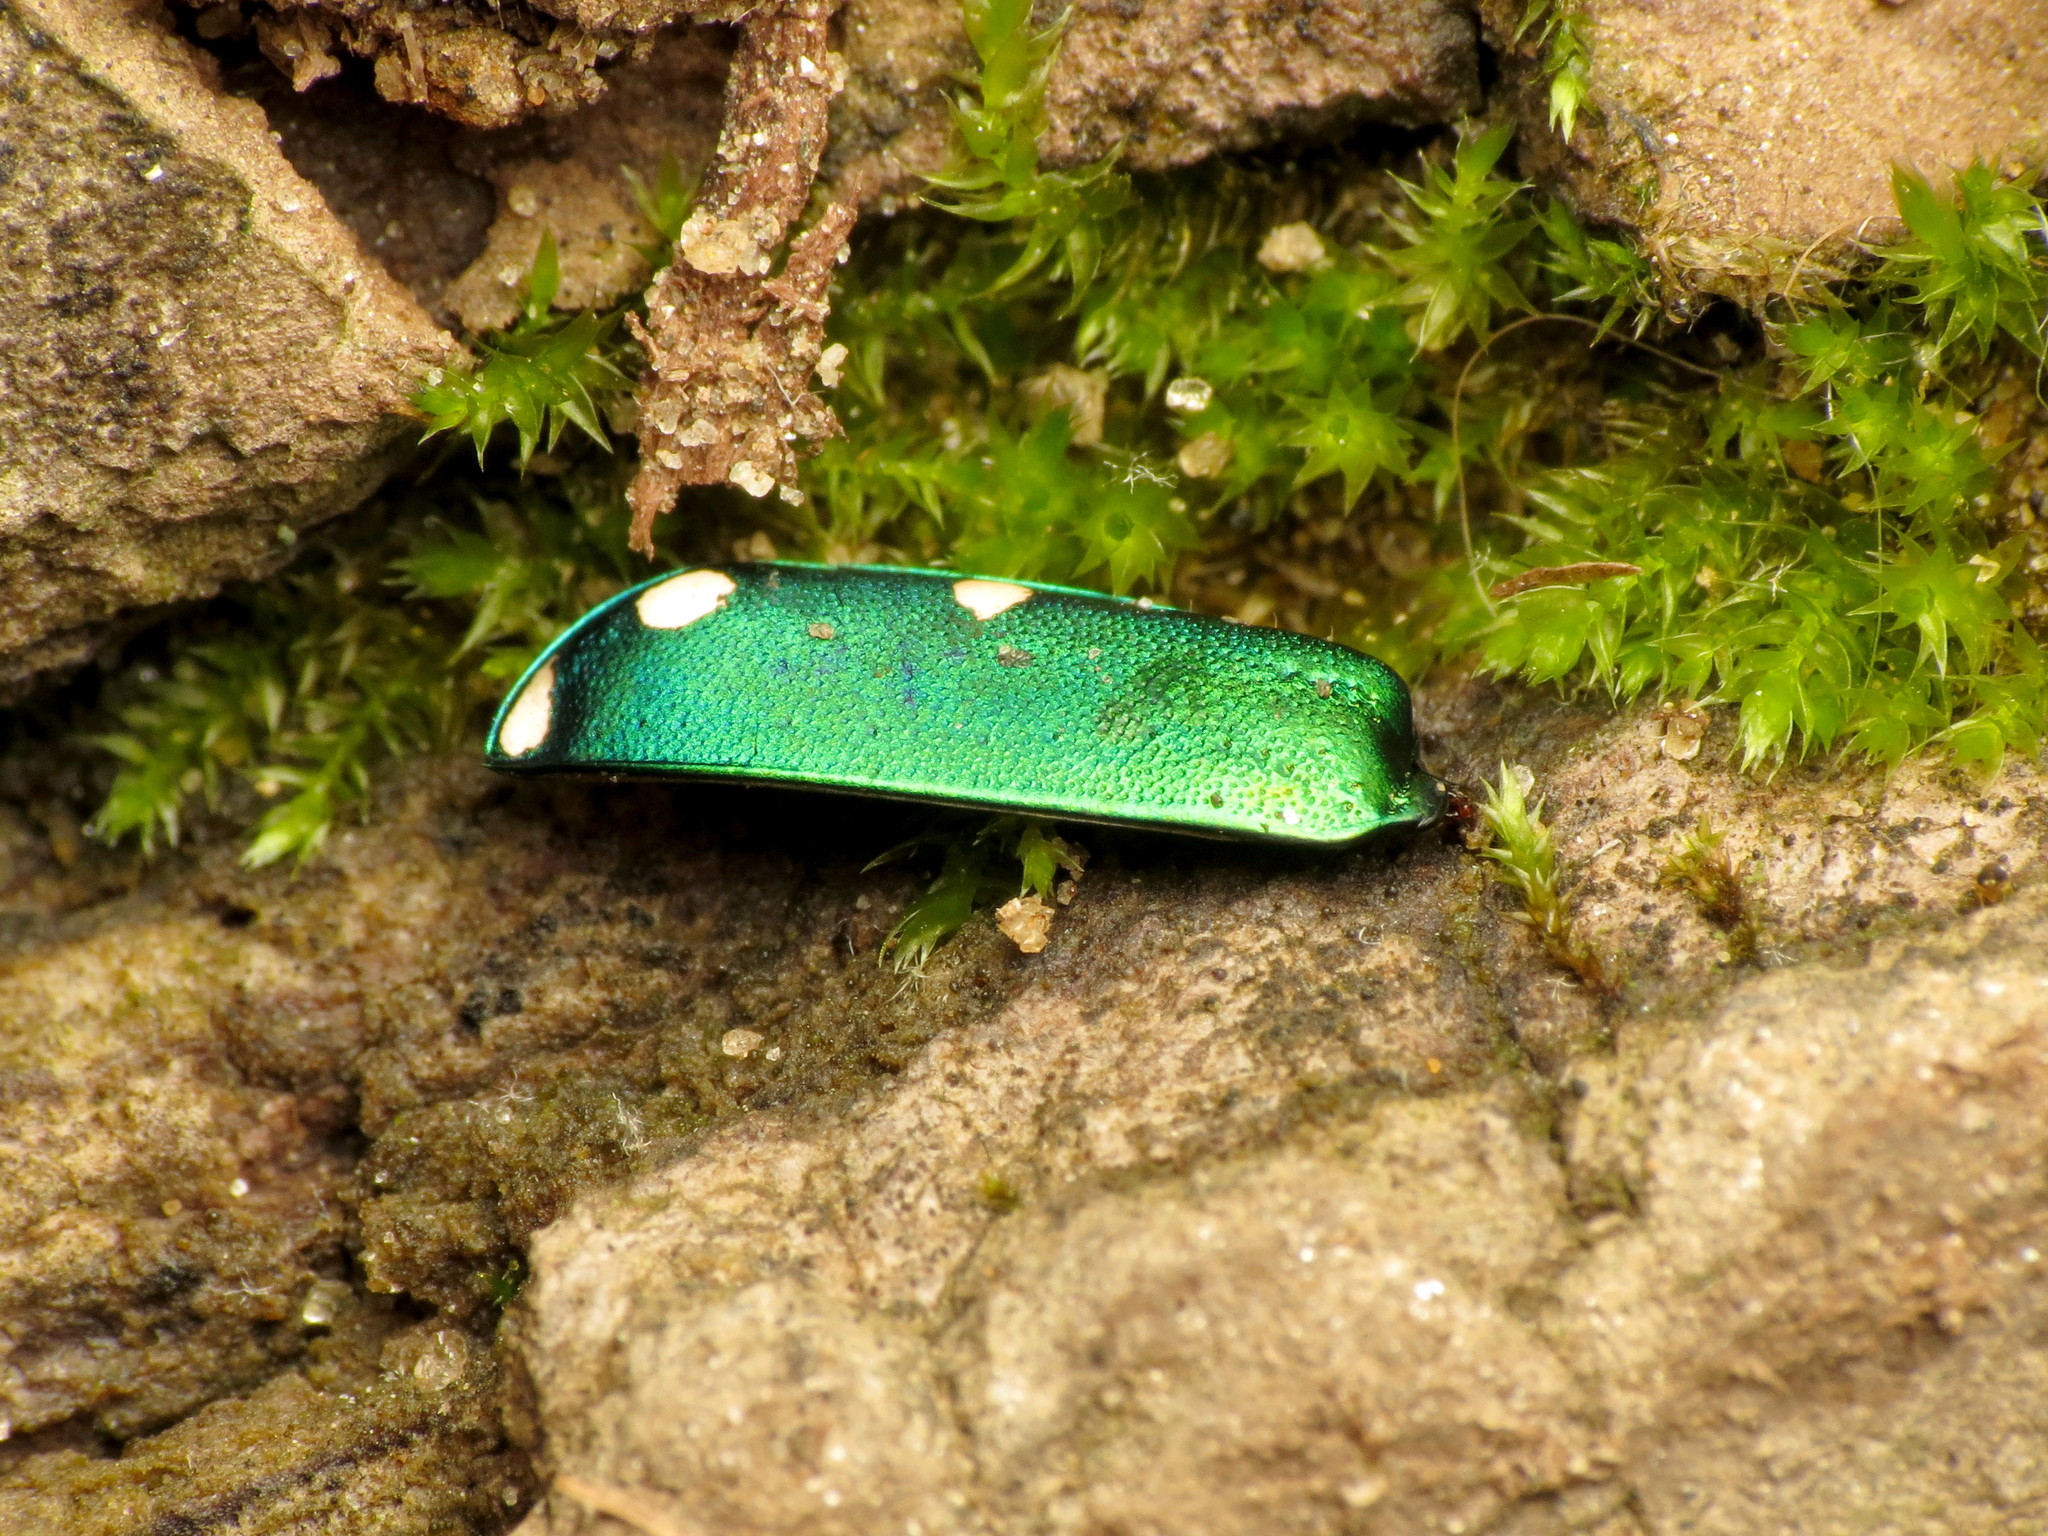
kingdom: Animalia
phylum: Arthropoda
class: Insecta
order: Coleoptera
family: Carabidae
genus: Cicindela
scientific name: Cicindela sexguttata
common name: Six-spotted tiger beetle
